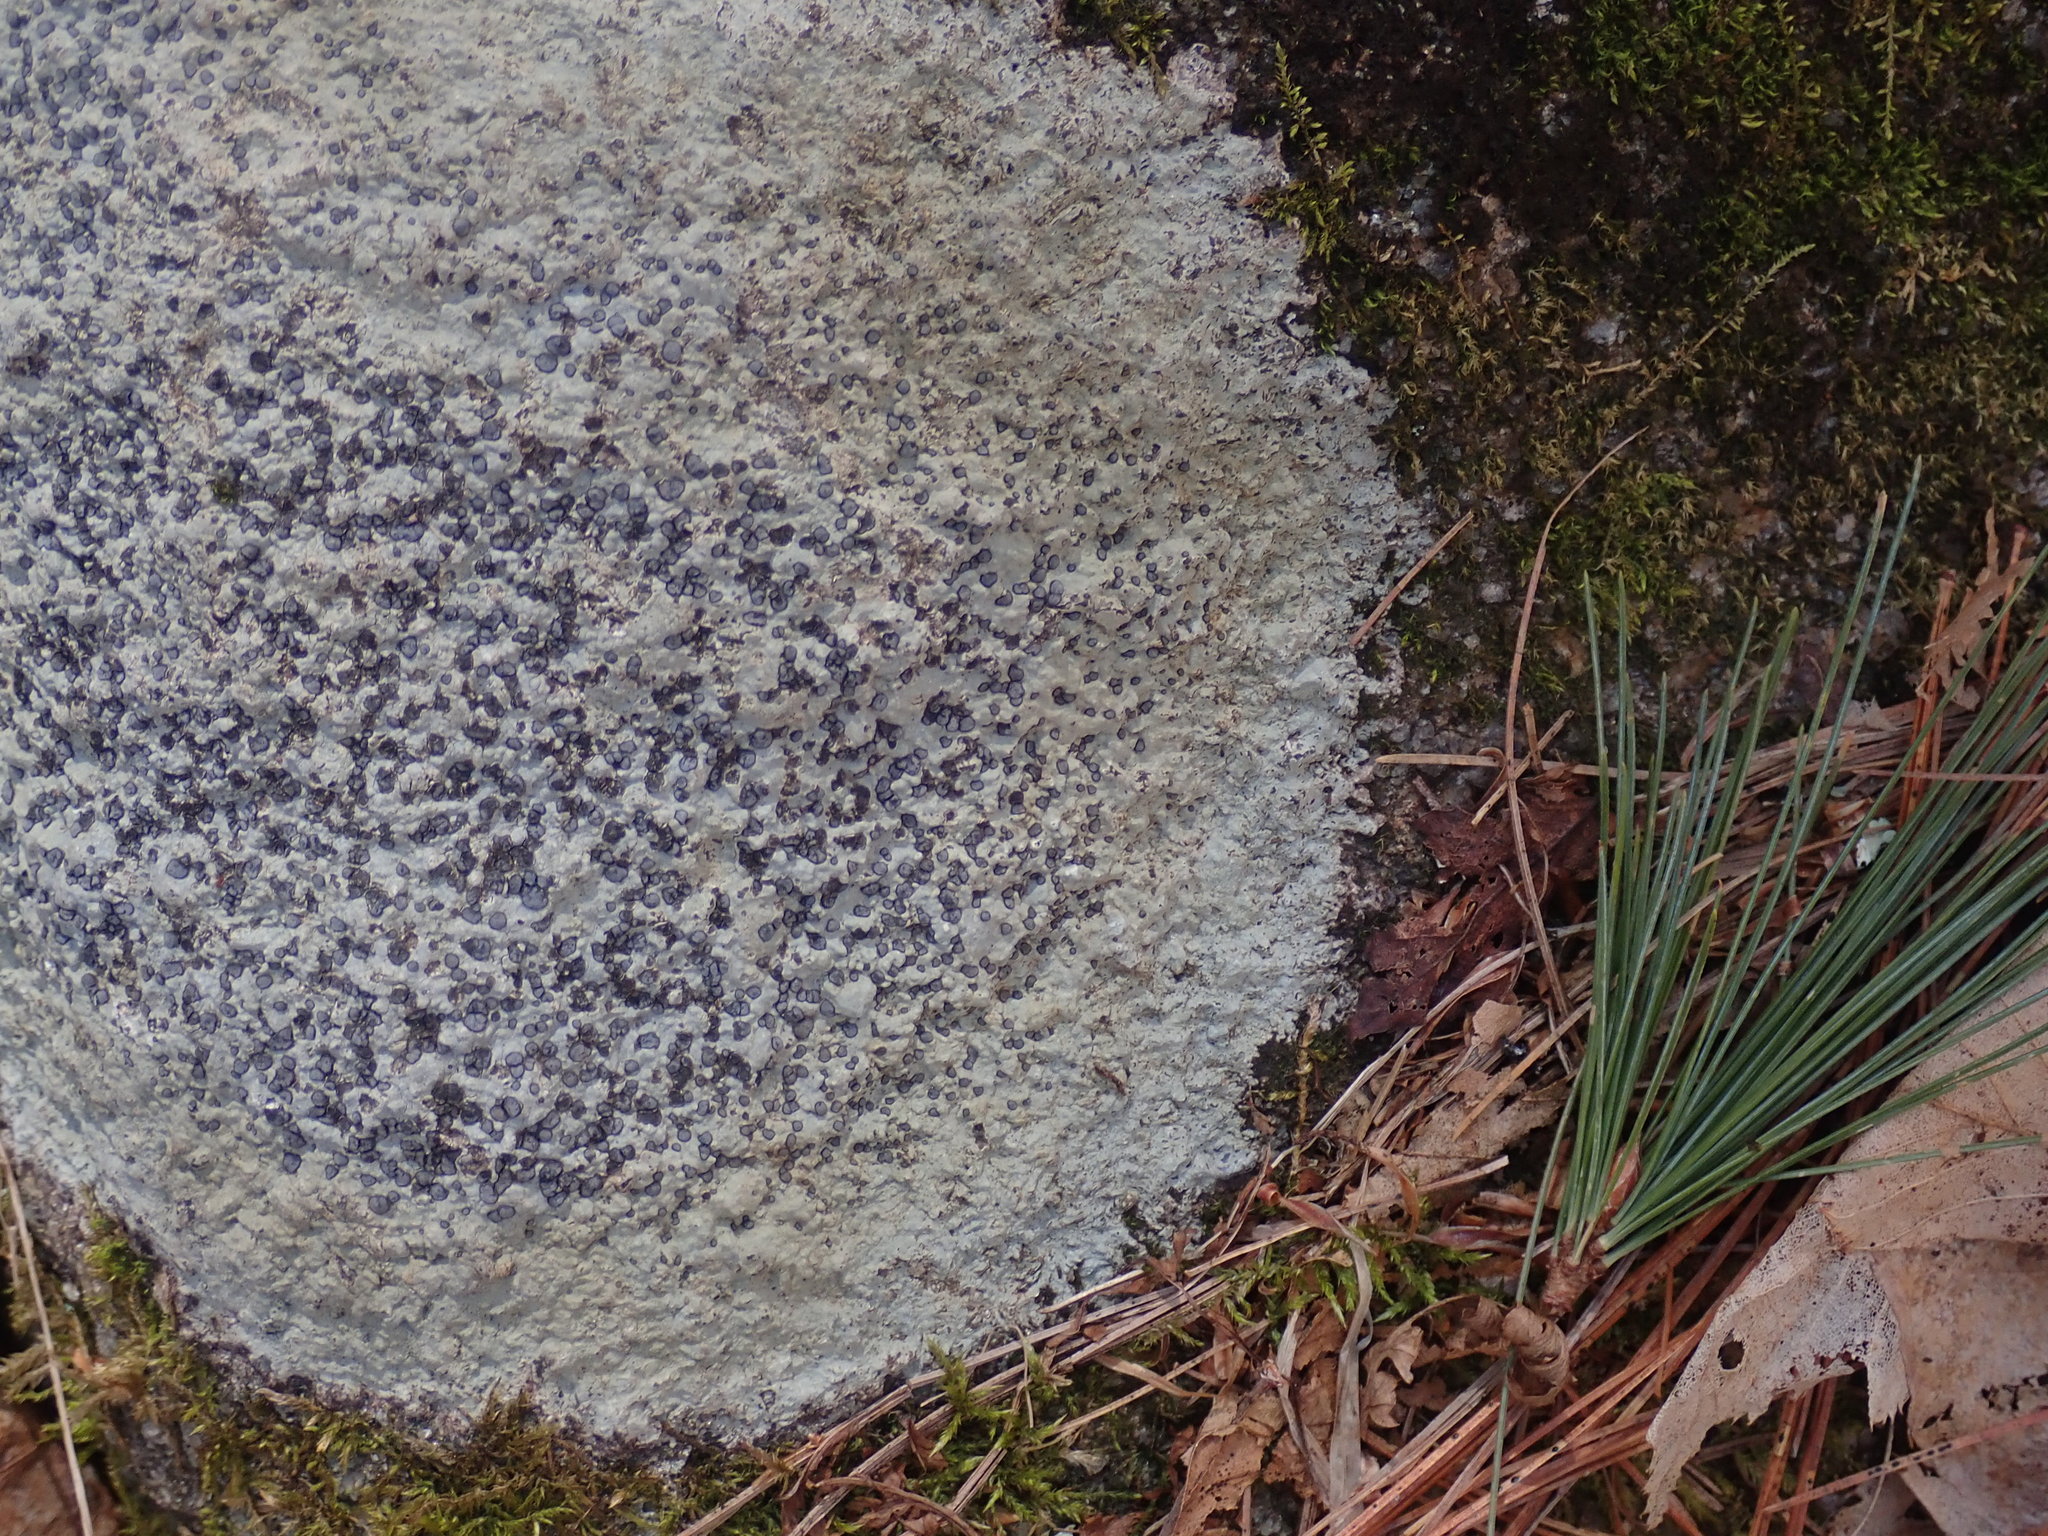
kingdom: Fungi
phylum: Ascomycota
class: Lecanoromycetes
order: Lecideales
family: Lecideaceae
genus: Porpidia
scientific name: Porpidia albocaerulescens
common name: Smokey-eyed boulder lichen
